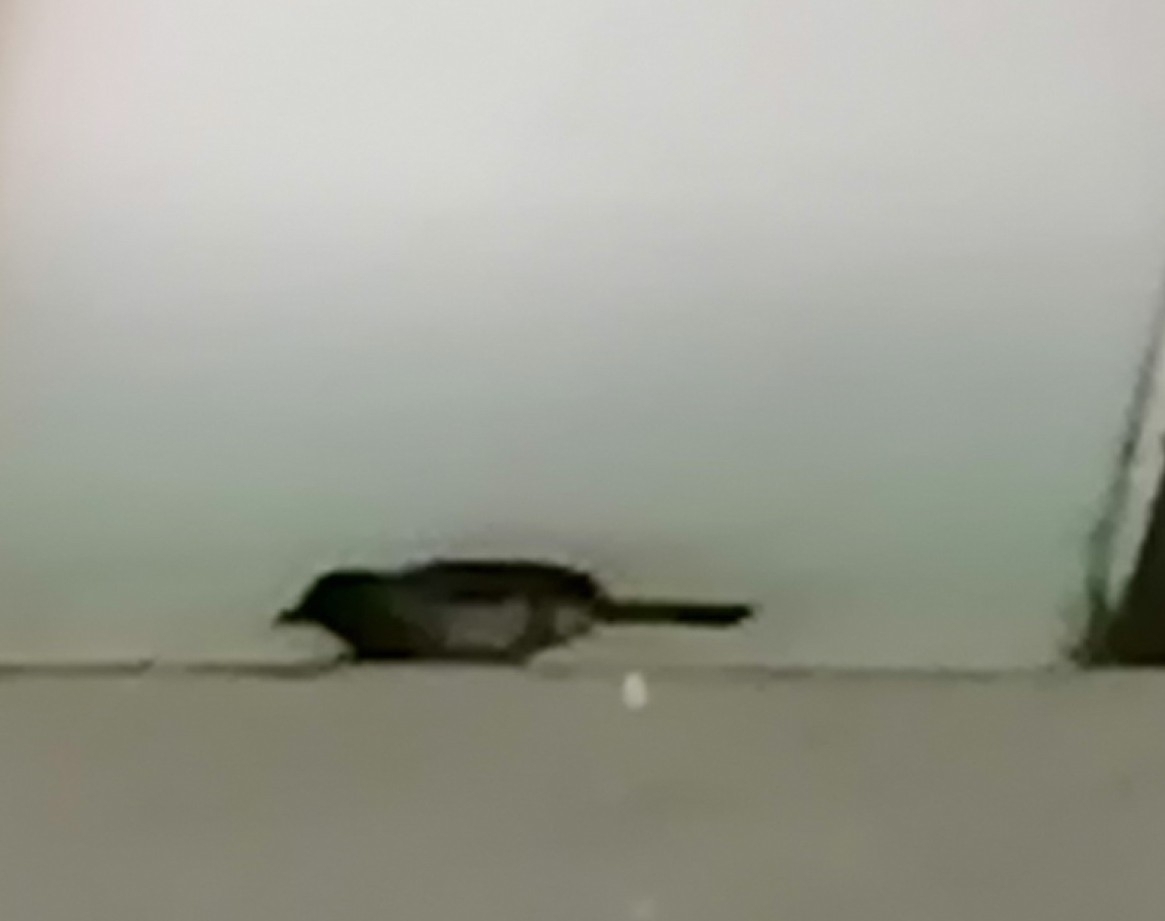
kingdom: Animalia
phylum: Chordata
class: Aves
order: Passeriformes
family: Pycnonotidae
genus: Pycnonotus
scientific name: Pycnonotus barbatus
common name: Common bulbul
